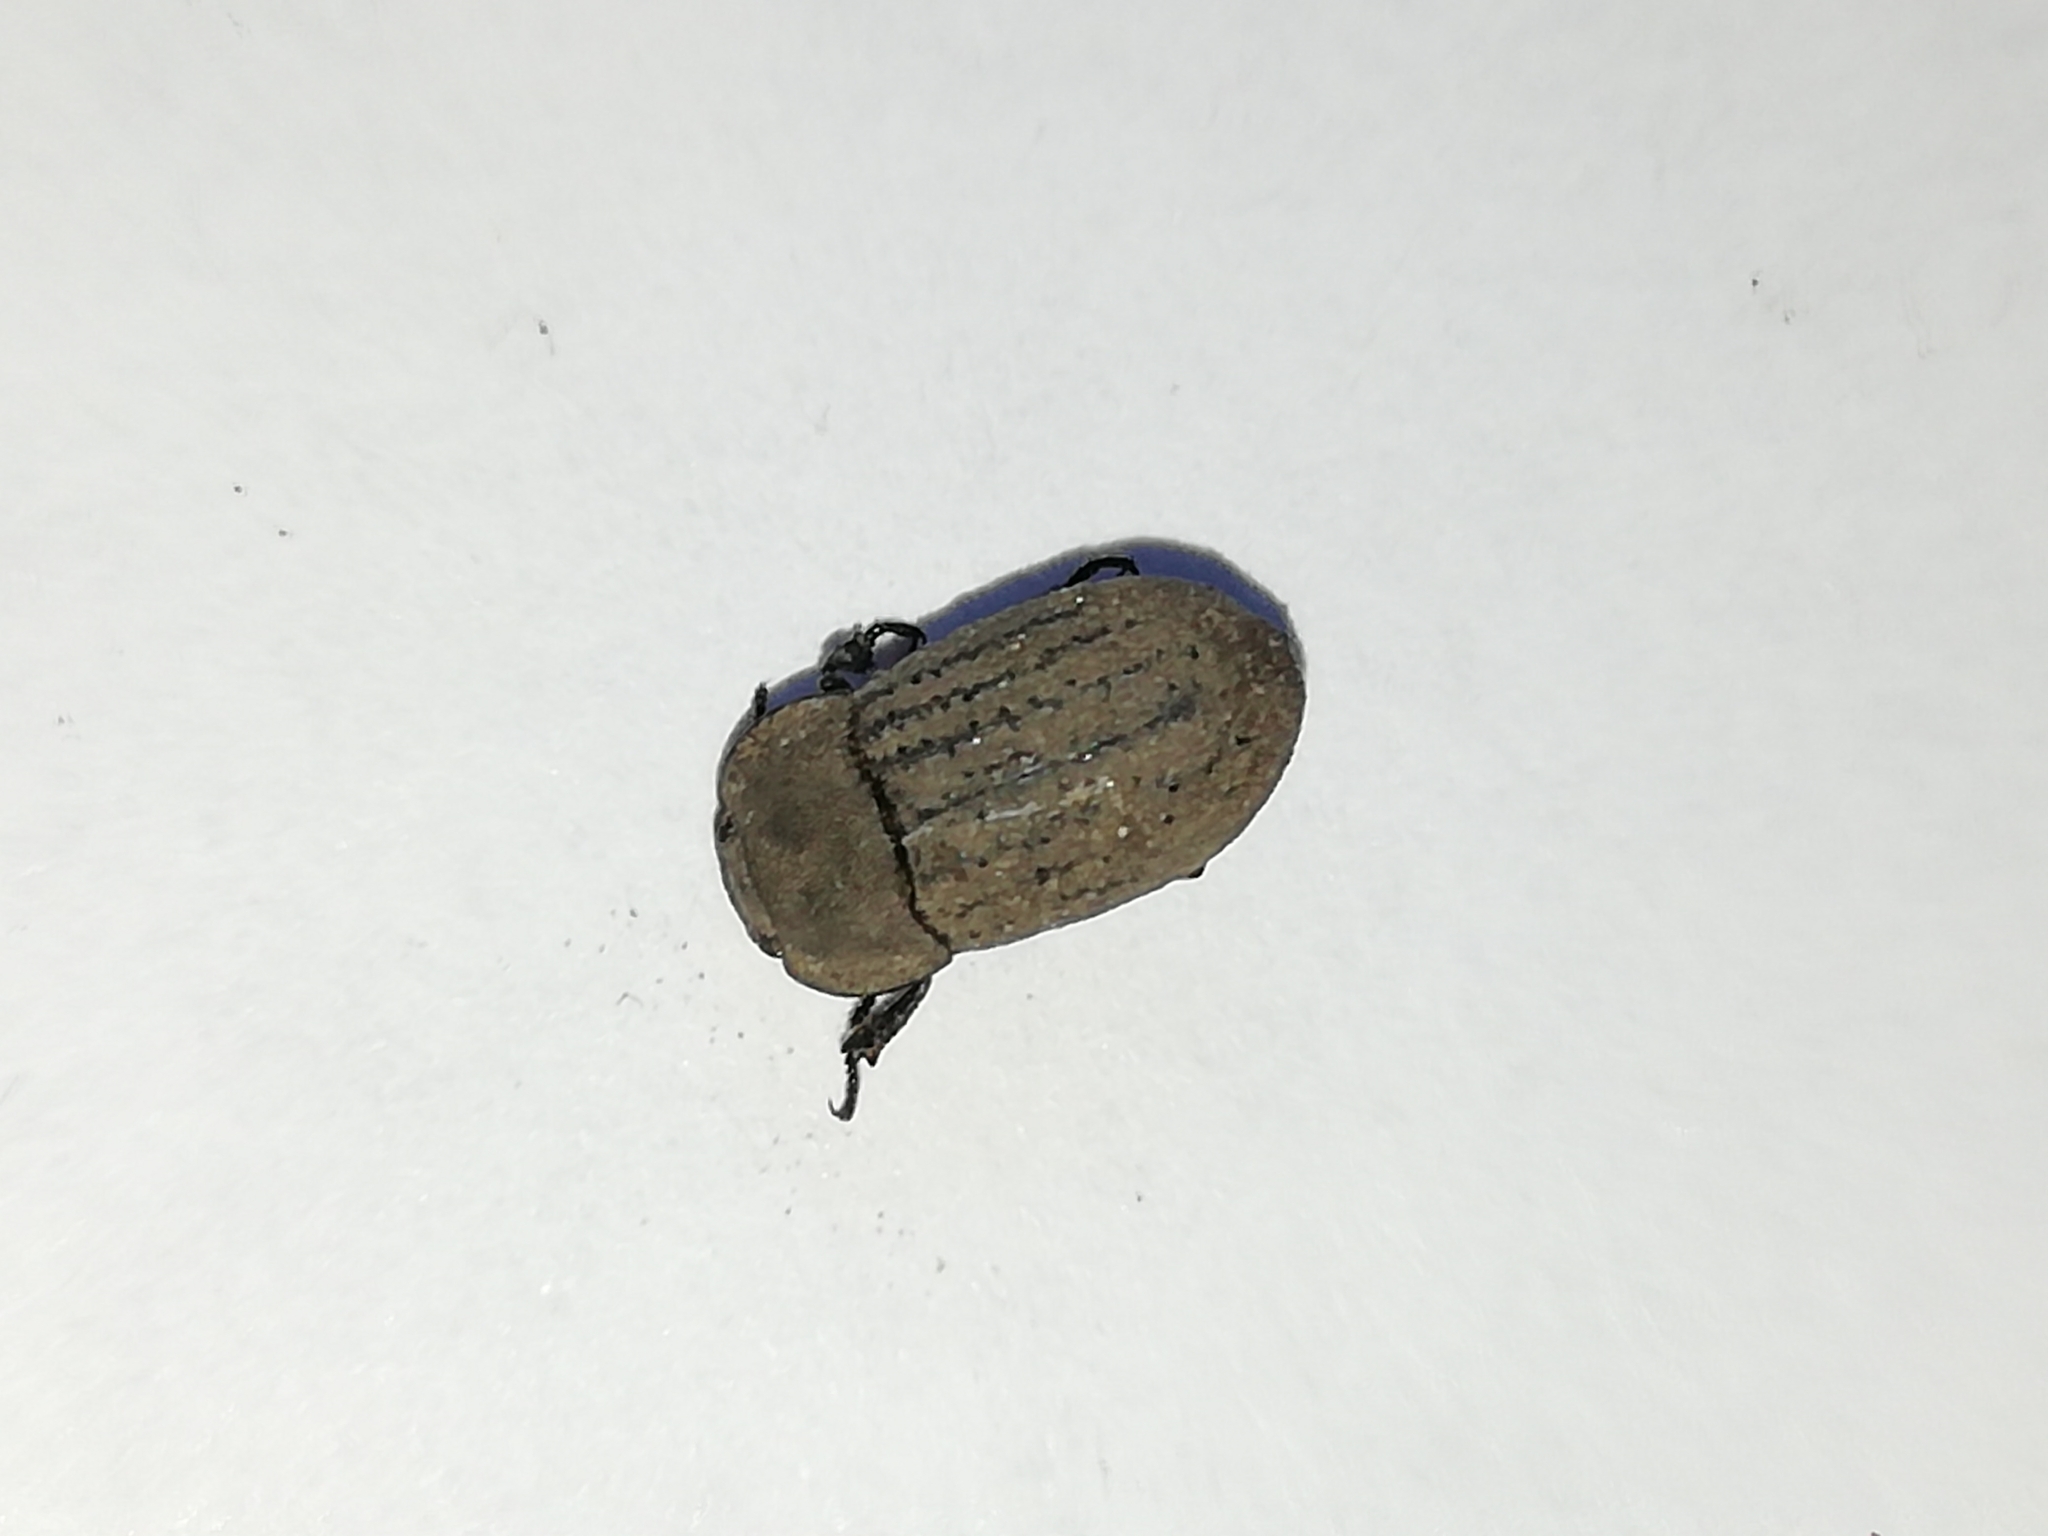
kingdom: Animalia
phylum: Arthropoda
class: Insecta
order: Coleoptera
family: Tenebrionidae
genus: Opatrum
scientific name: Opatrum sabulosum
